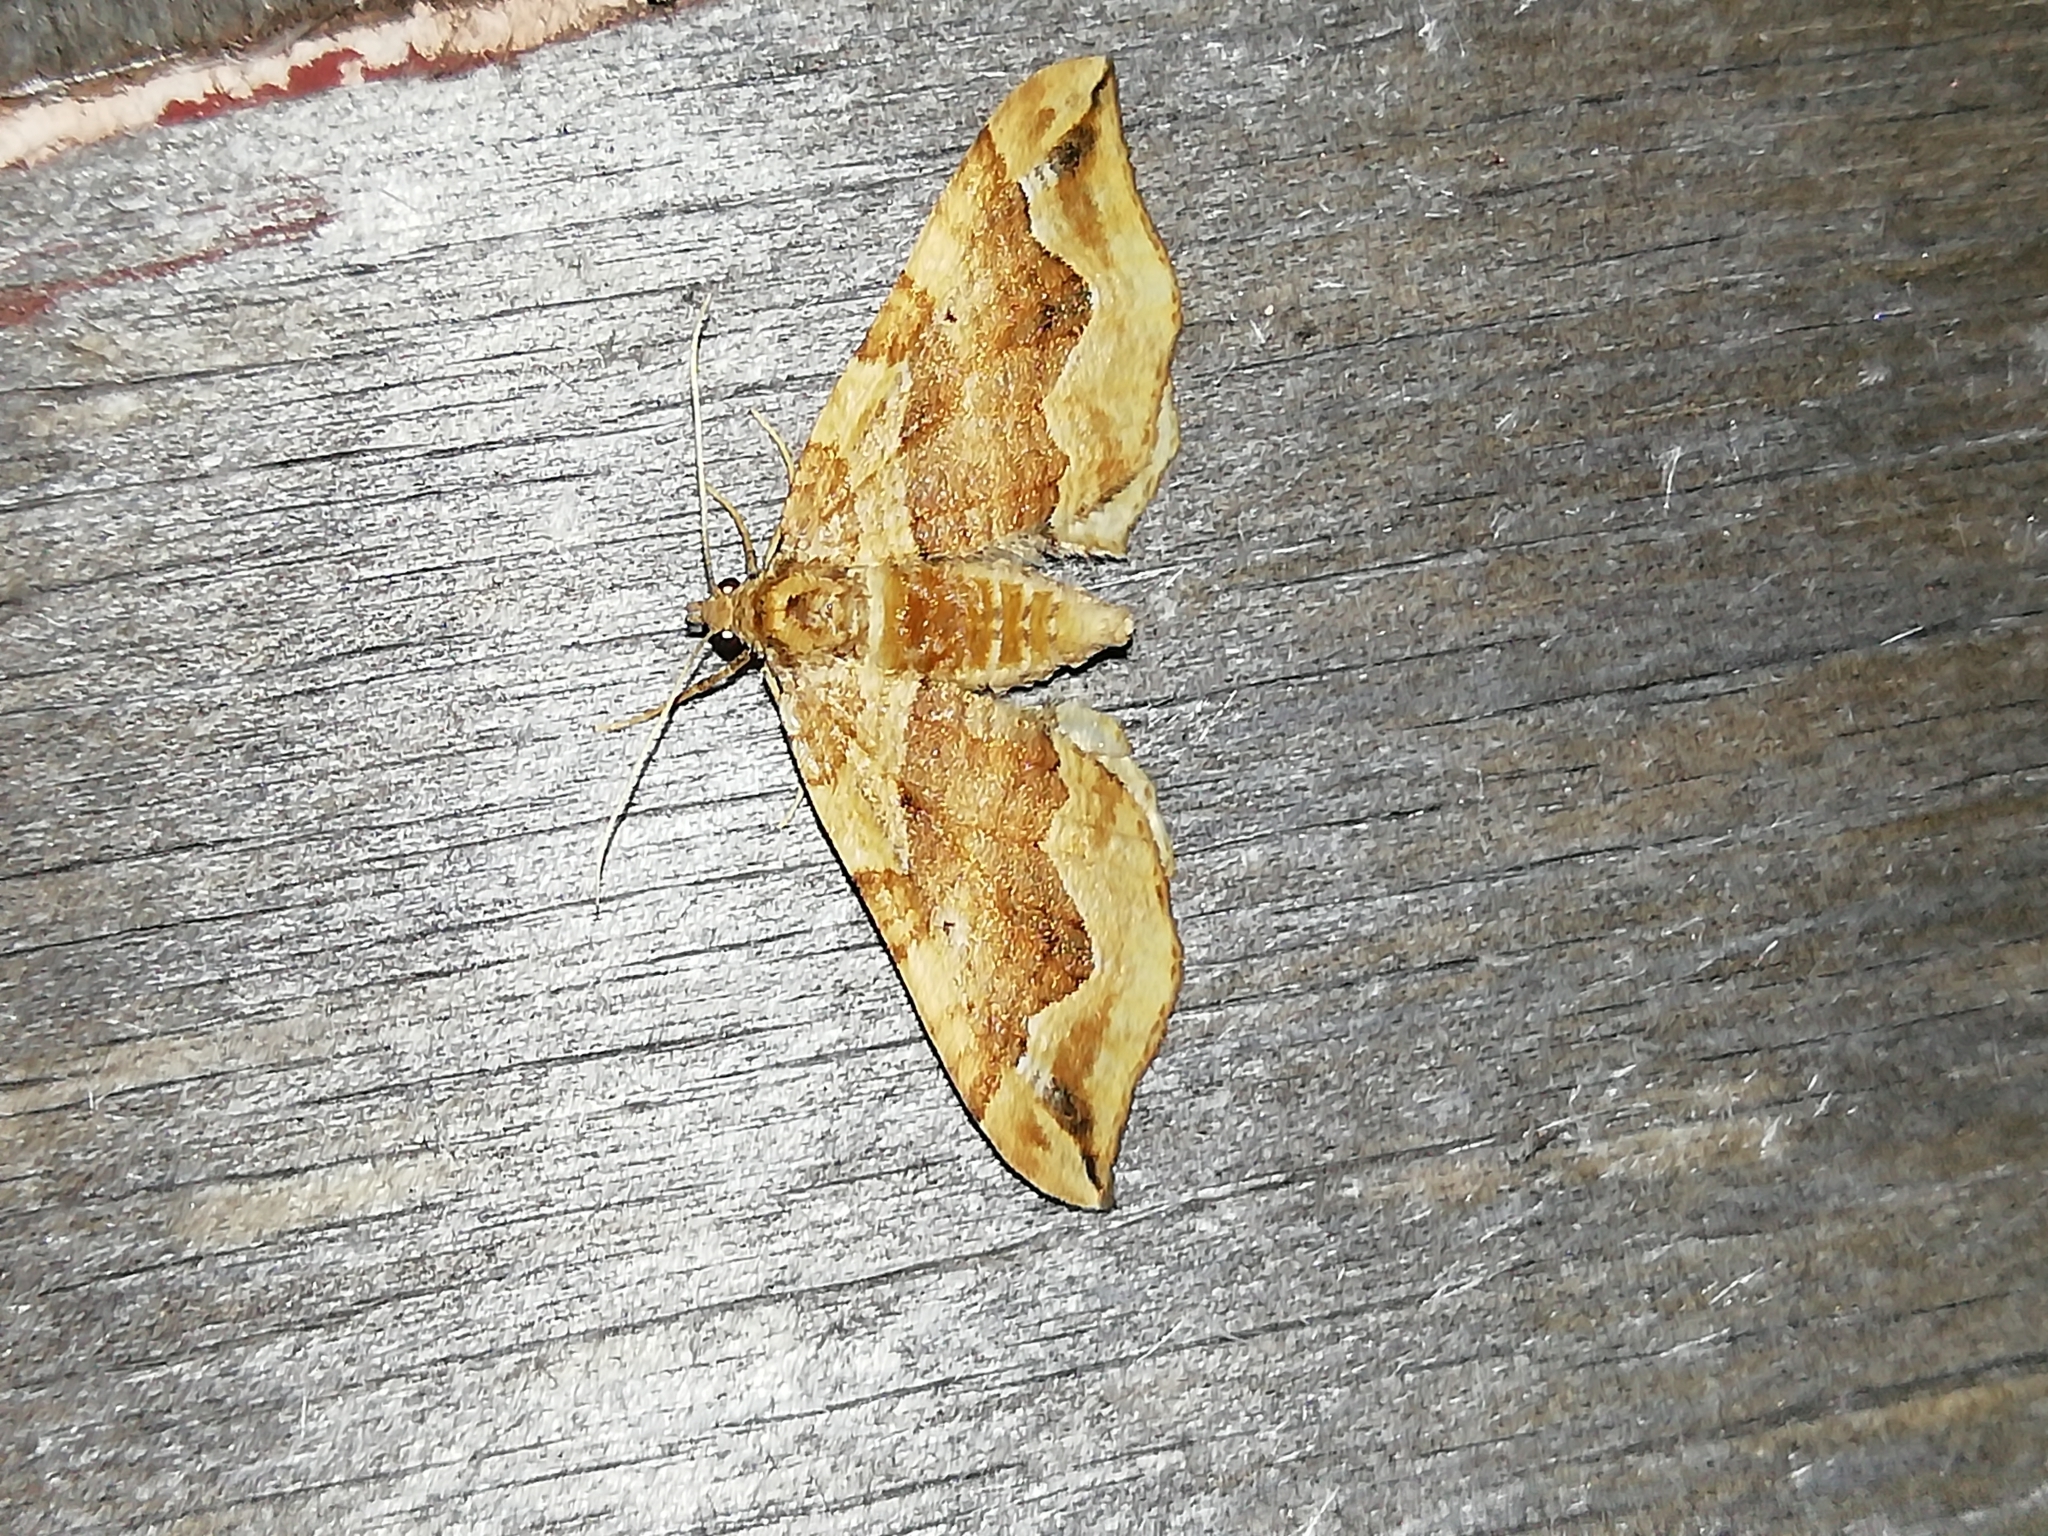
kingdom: Animalia
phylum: Arthropoda
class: Insecta
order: Lepidoptera
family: Geometridae
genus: Pelurga
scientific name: Pelurga comitata
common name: Dark spinach
